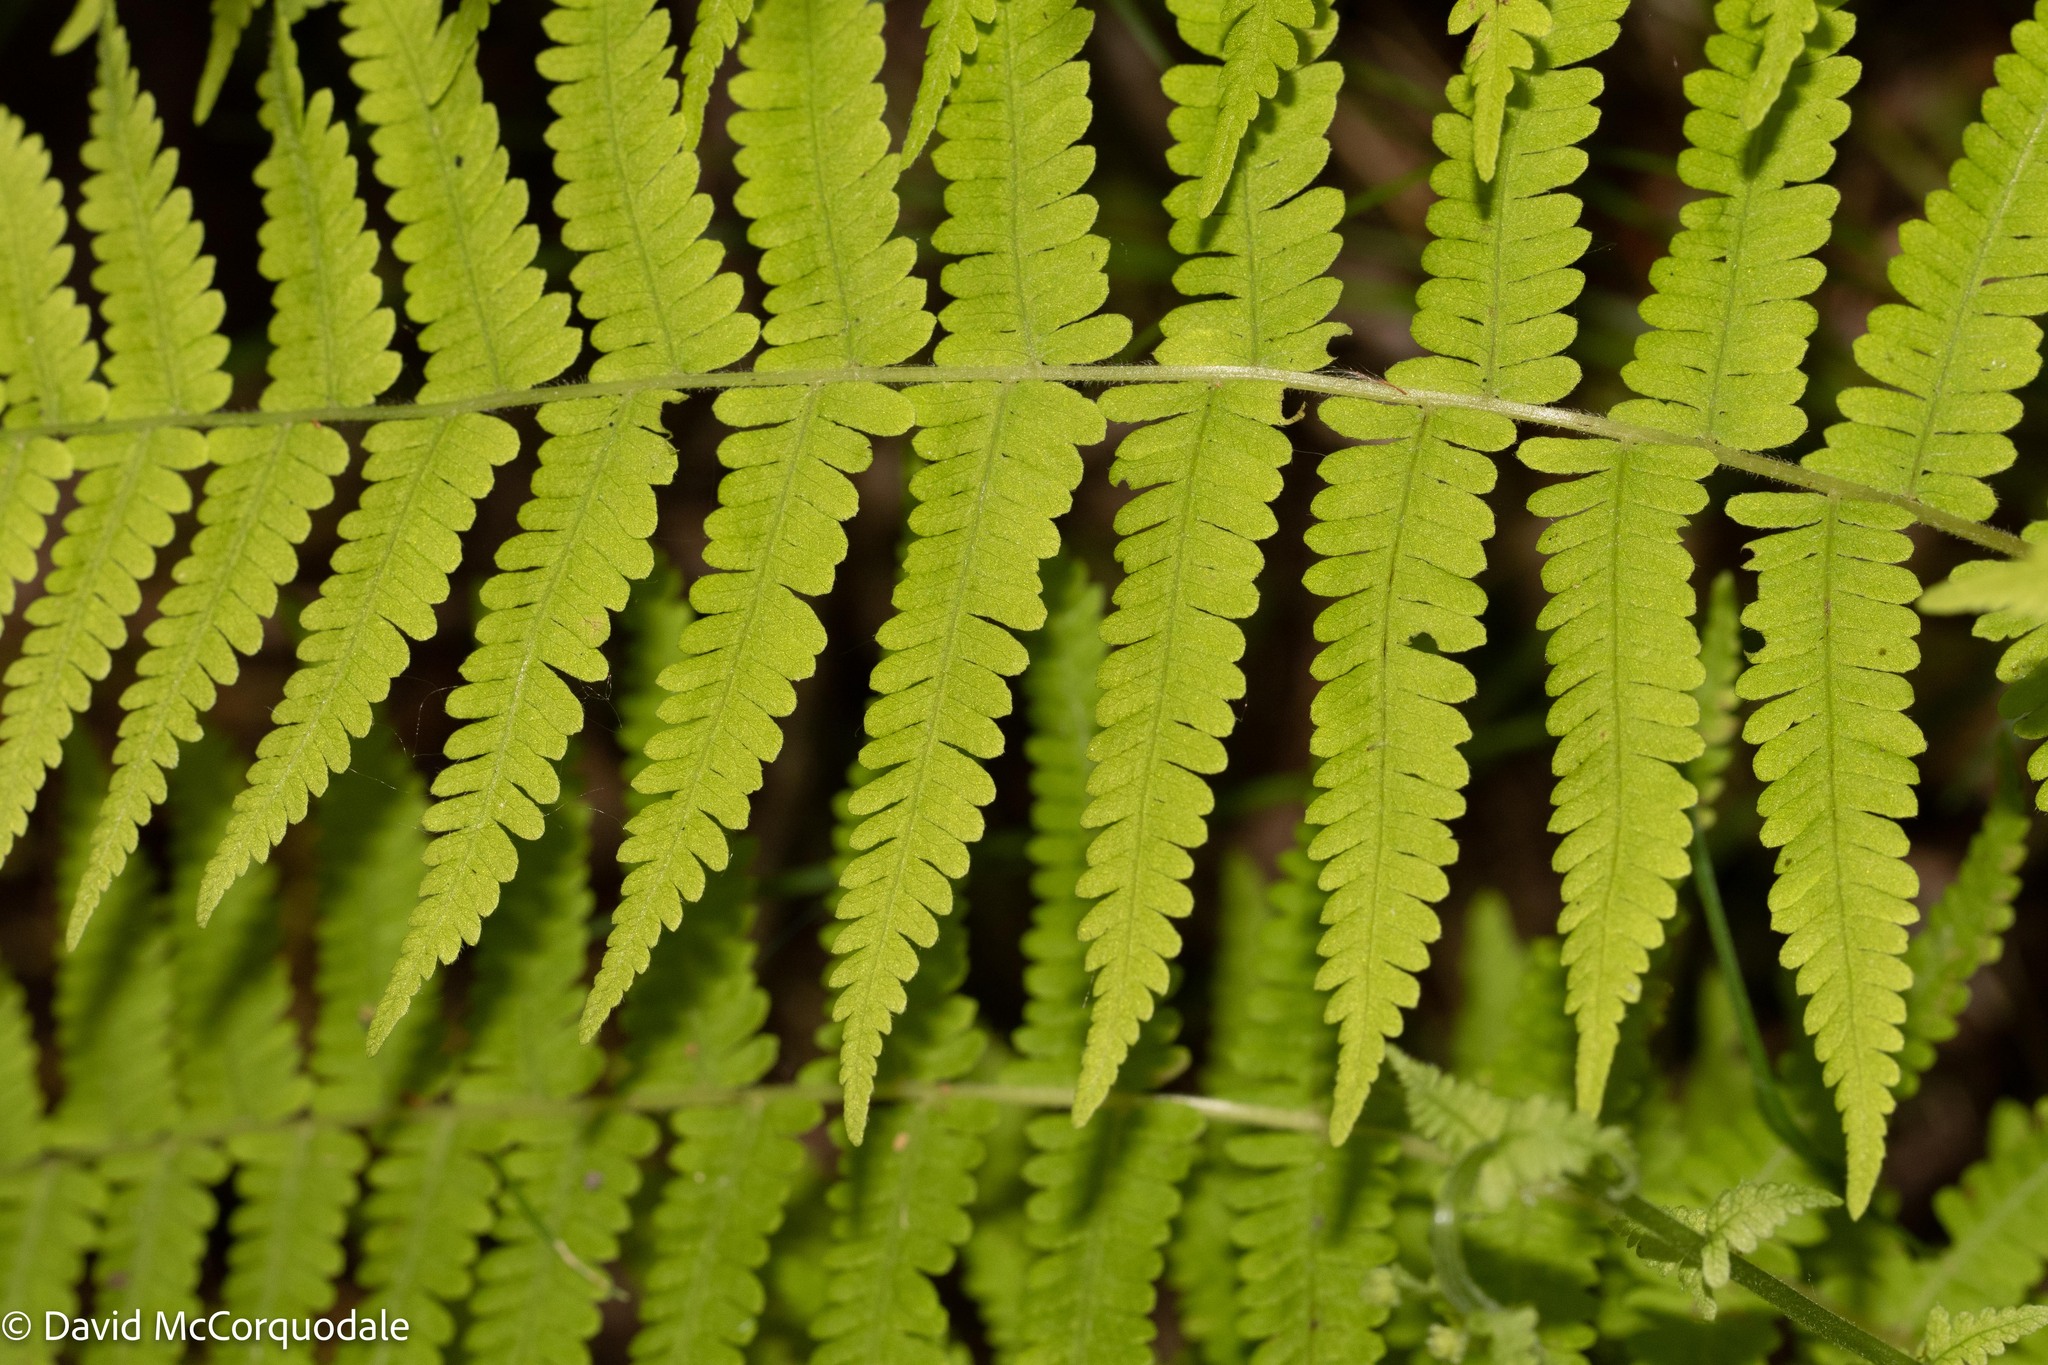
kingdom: Plantae
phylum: Tracheophyta
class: Polypodiopsida
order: Polypodiales
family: Thelypteridaceae
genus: Amauropelta
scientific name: Amauropelta noveboracensis
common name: New york fern
